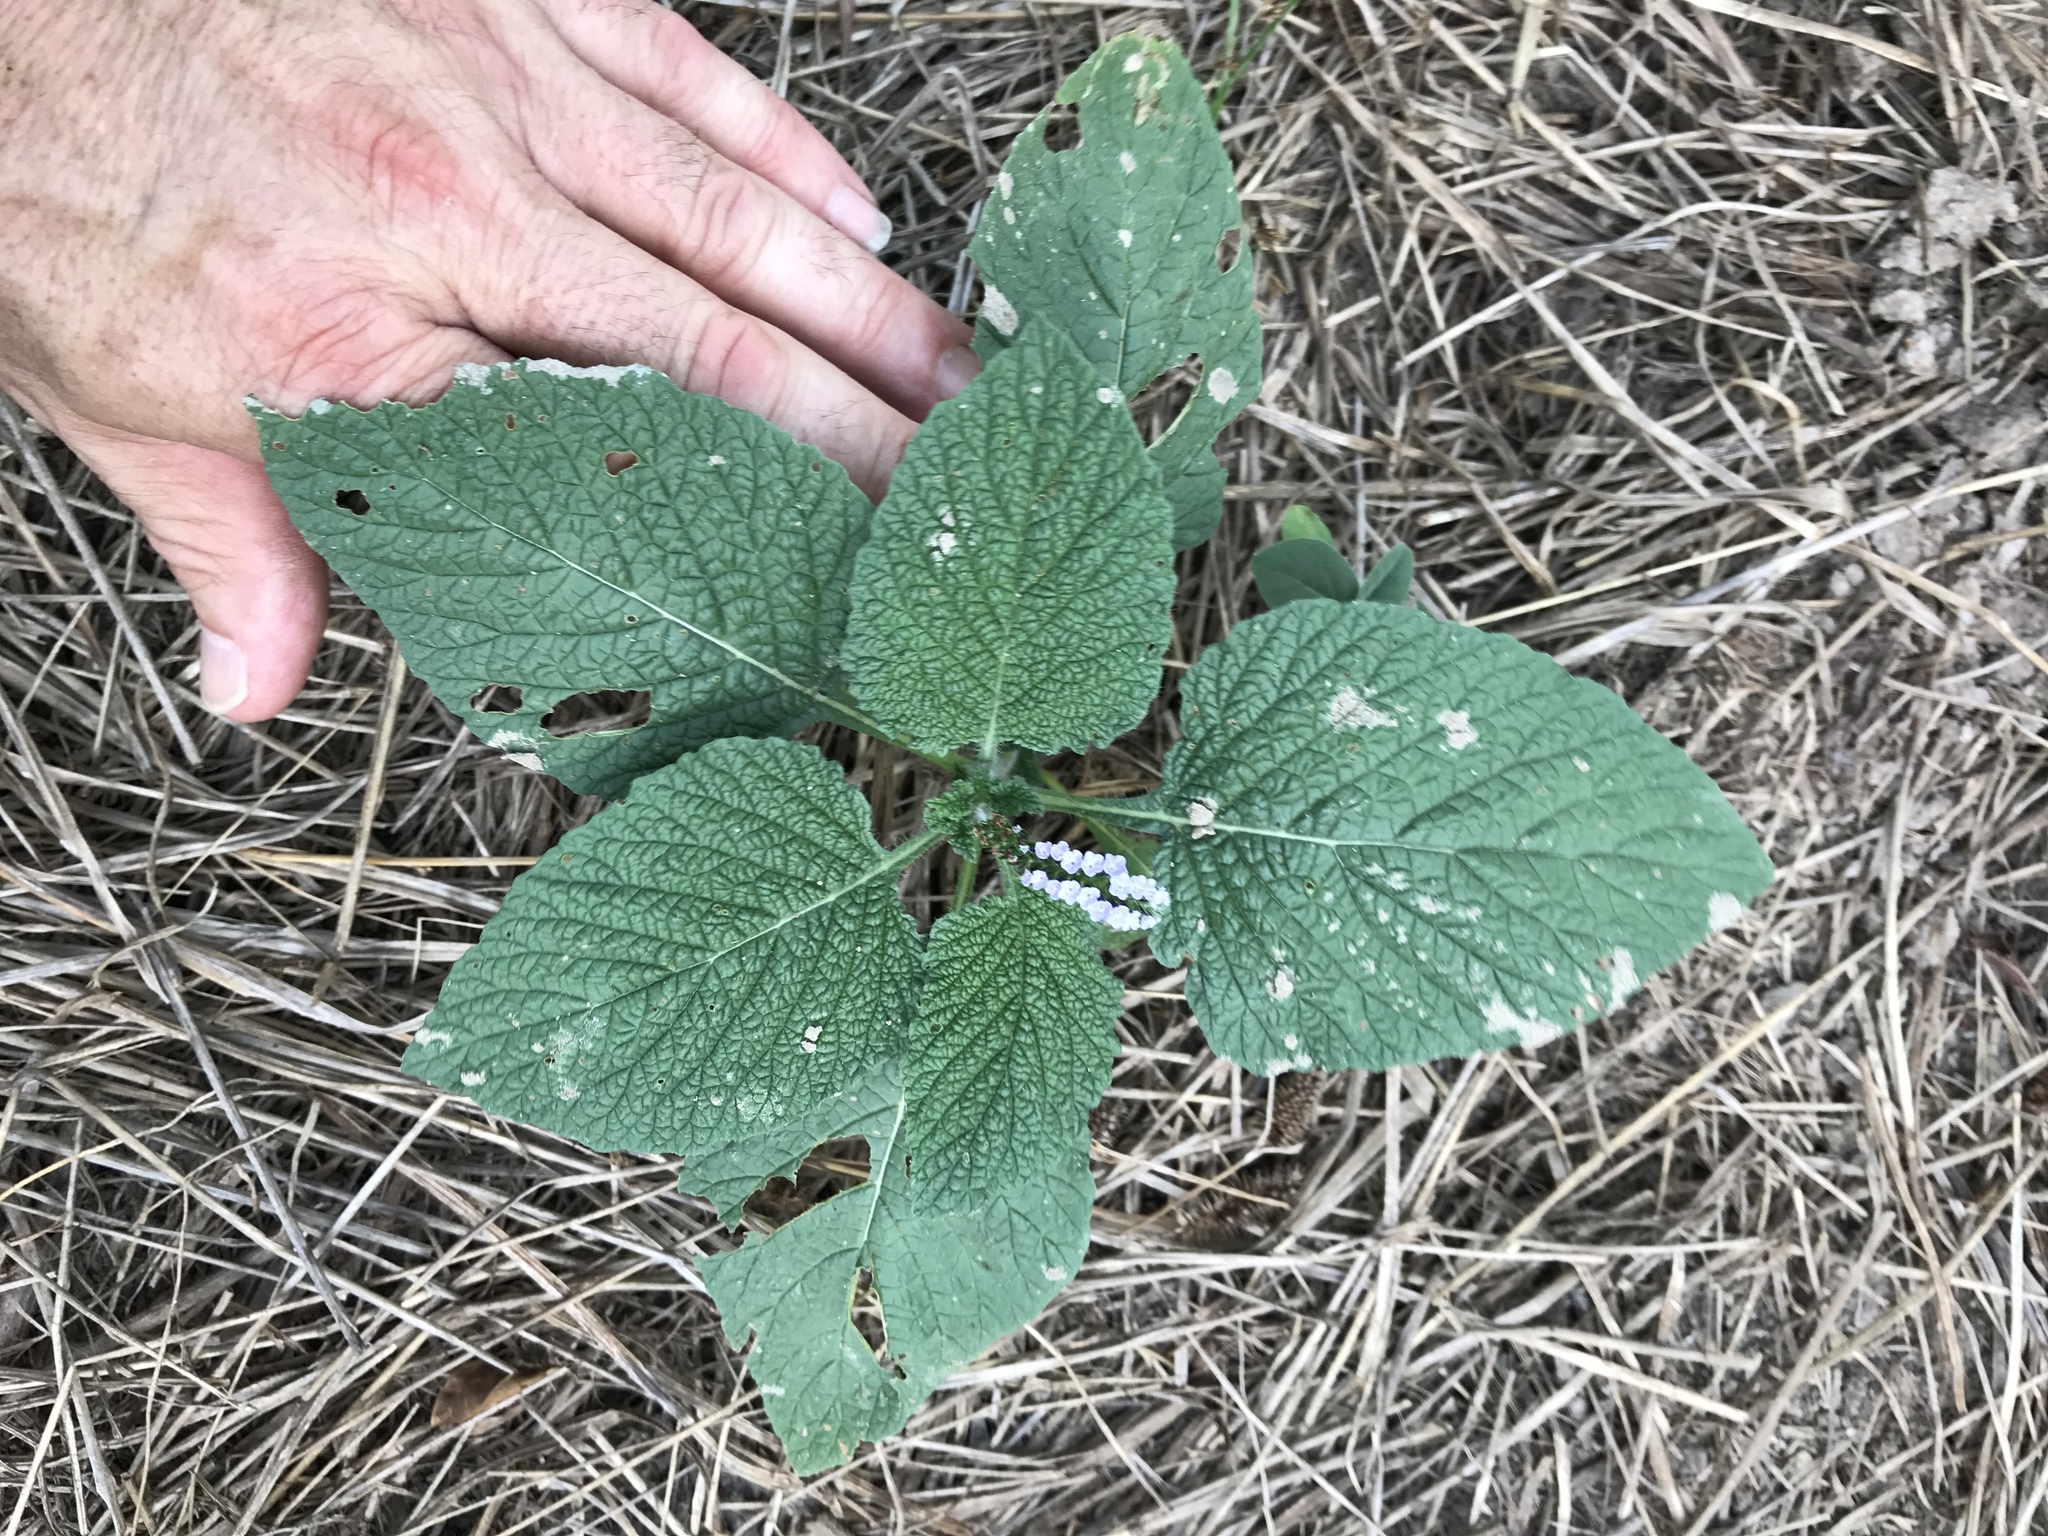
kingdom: Plantae
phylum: Tracheophyta
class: Magnoliopsida
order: Boraginales
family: Heliotropiaceae
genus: Heliotropium
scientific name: Heliotropium indicum
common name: Indian heliotrope
